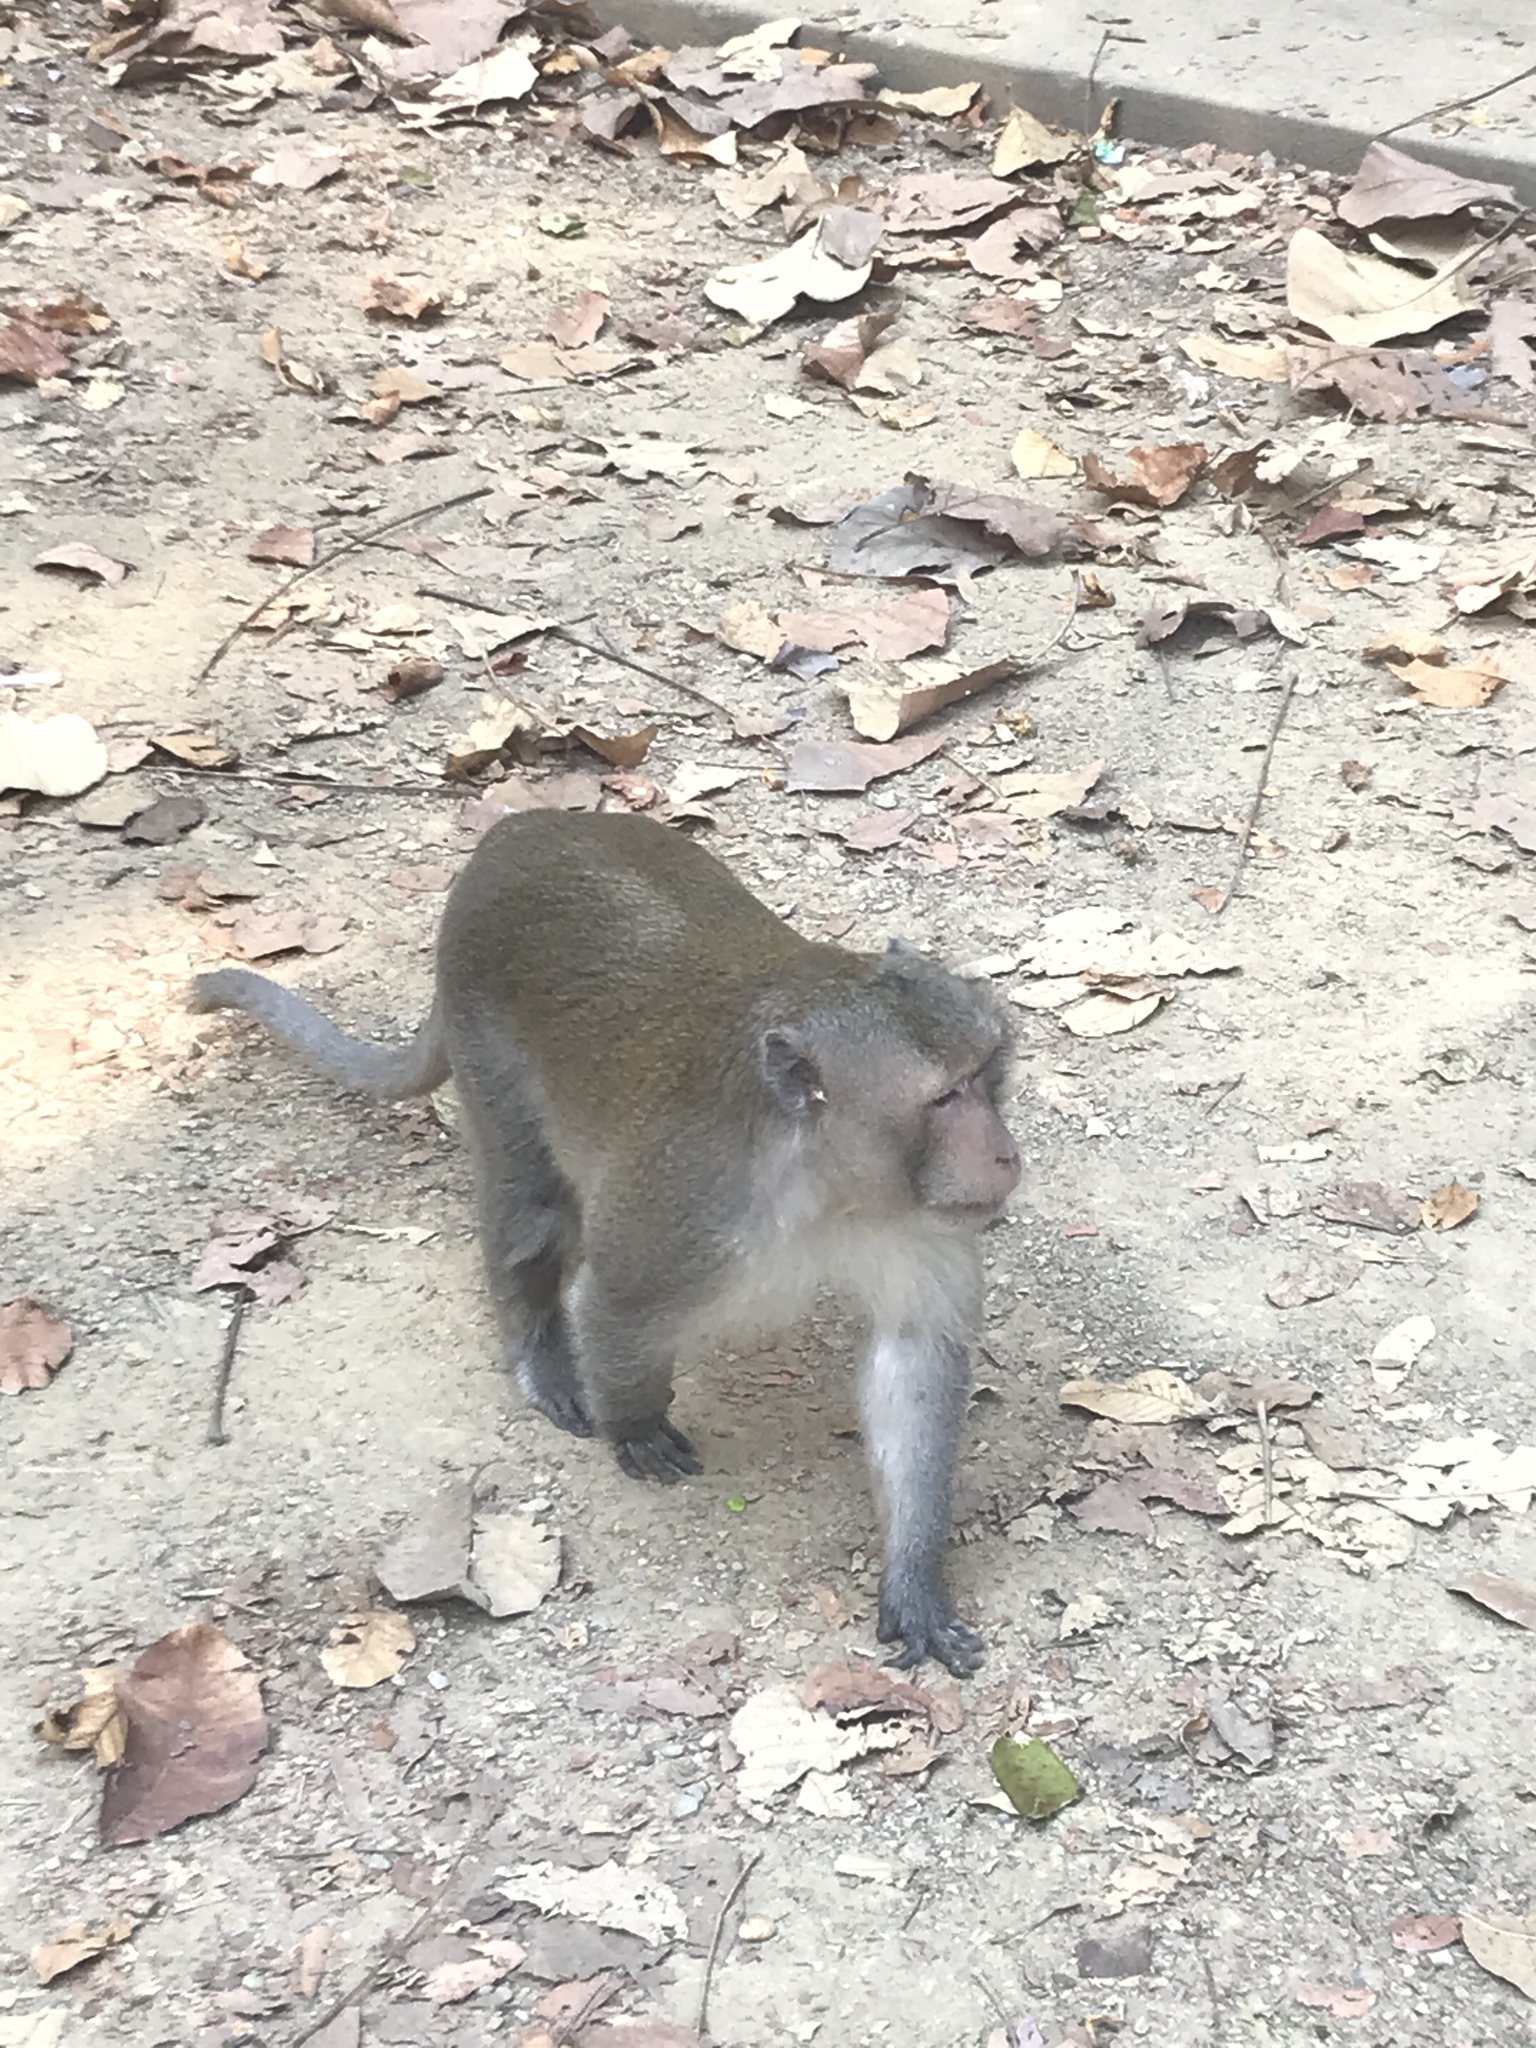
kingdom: Animalia
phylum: Chordata
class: Mammalia
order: Primates
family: Cercopithecidae
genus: Macaca
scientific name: Macaca fascicularis
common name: Crab-eating macaque
